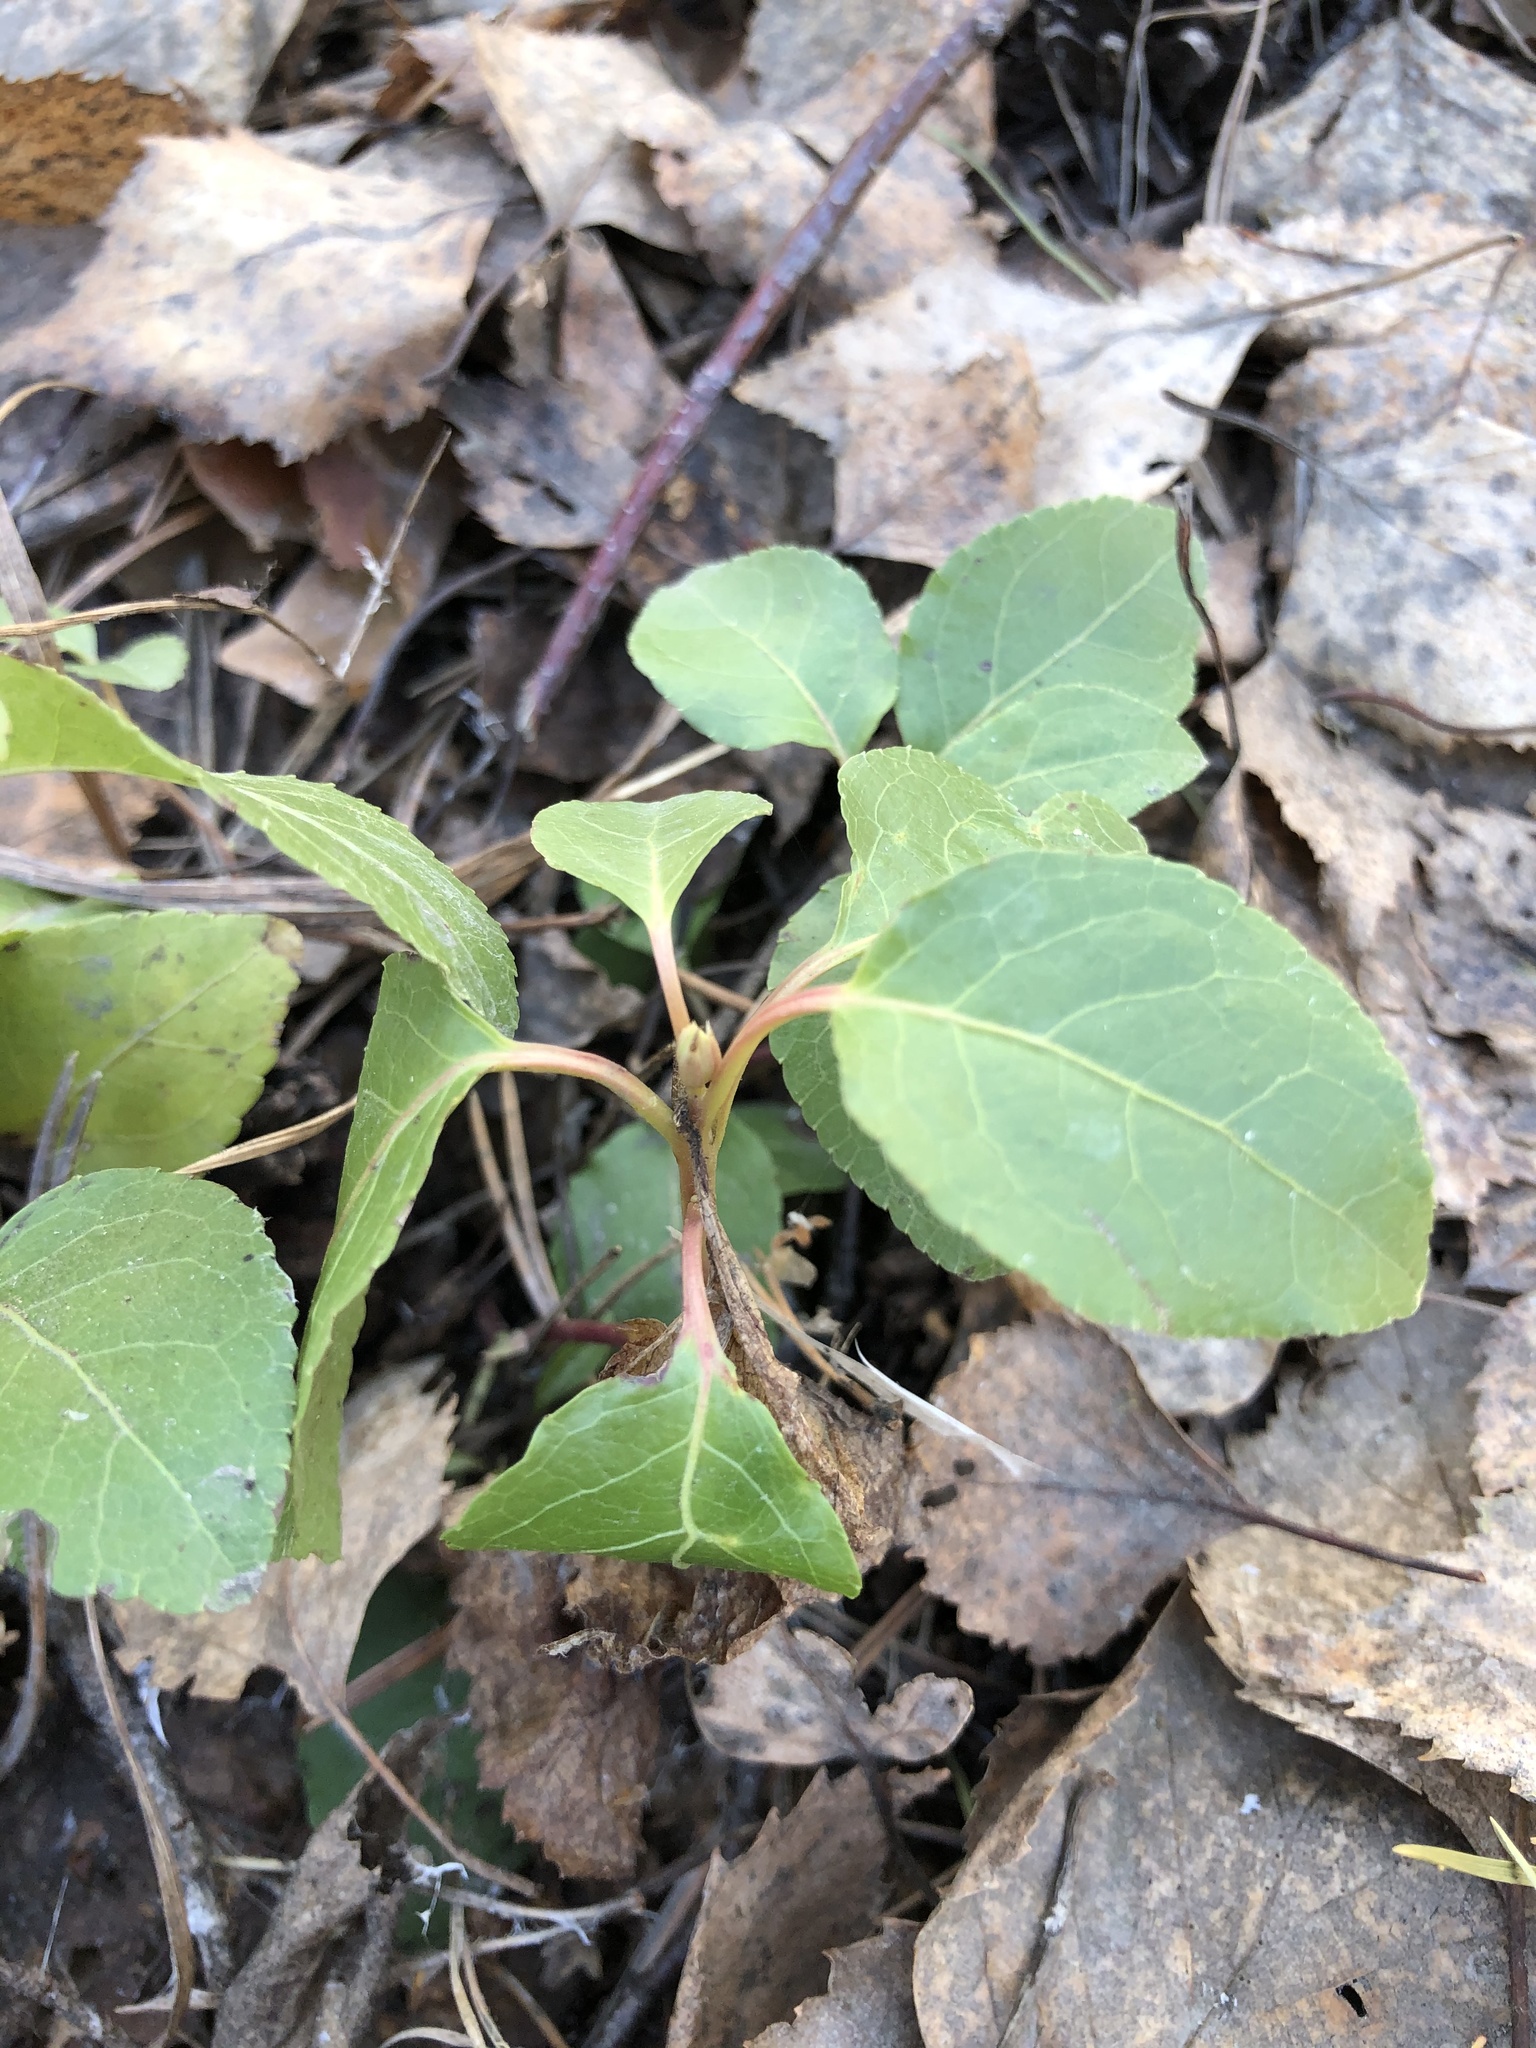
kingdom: Plantae
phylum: Tracheophyta
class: Magnoliopsida
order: Ericales
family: Ericaceae
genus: Orthilia
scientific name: Orthilia secunda
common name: One-sided orthilia
